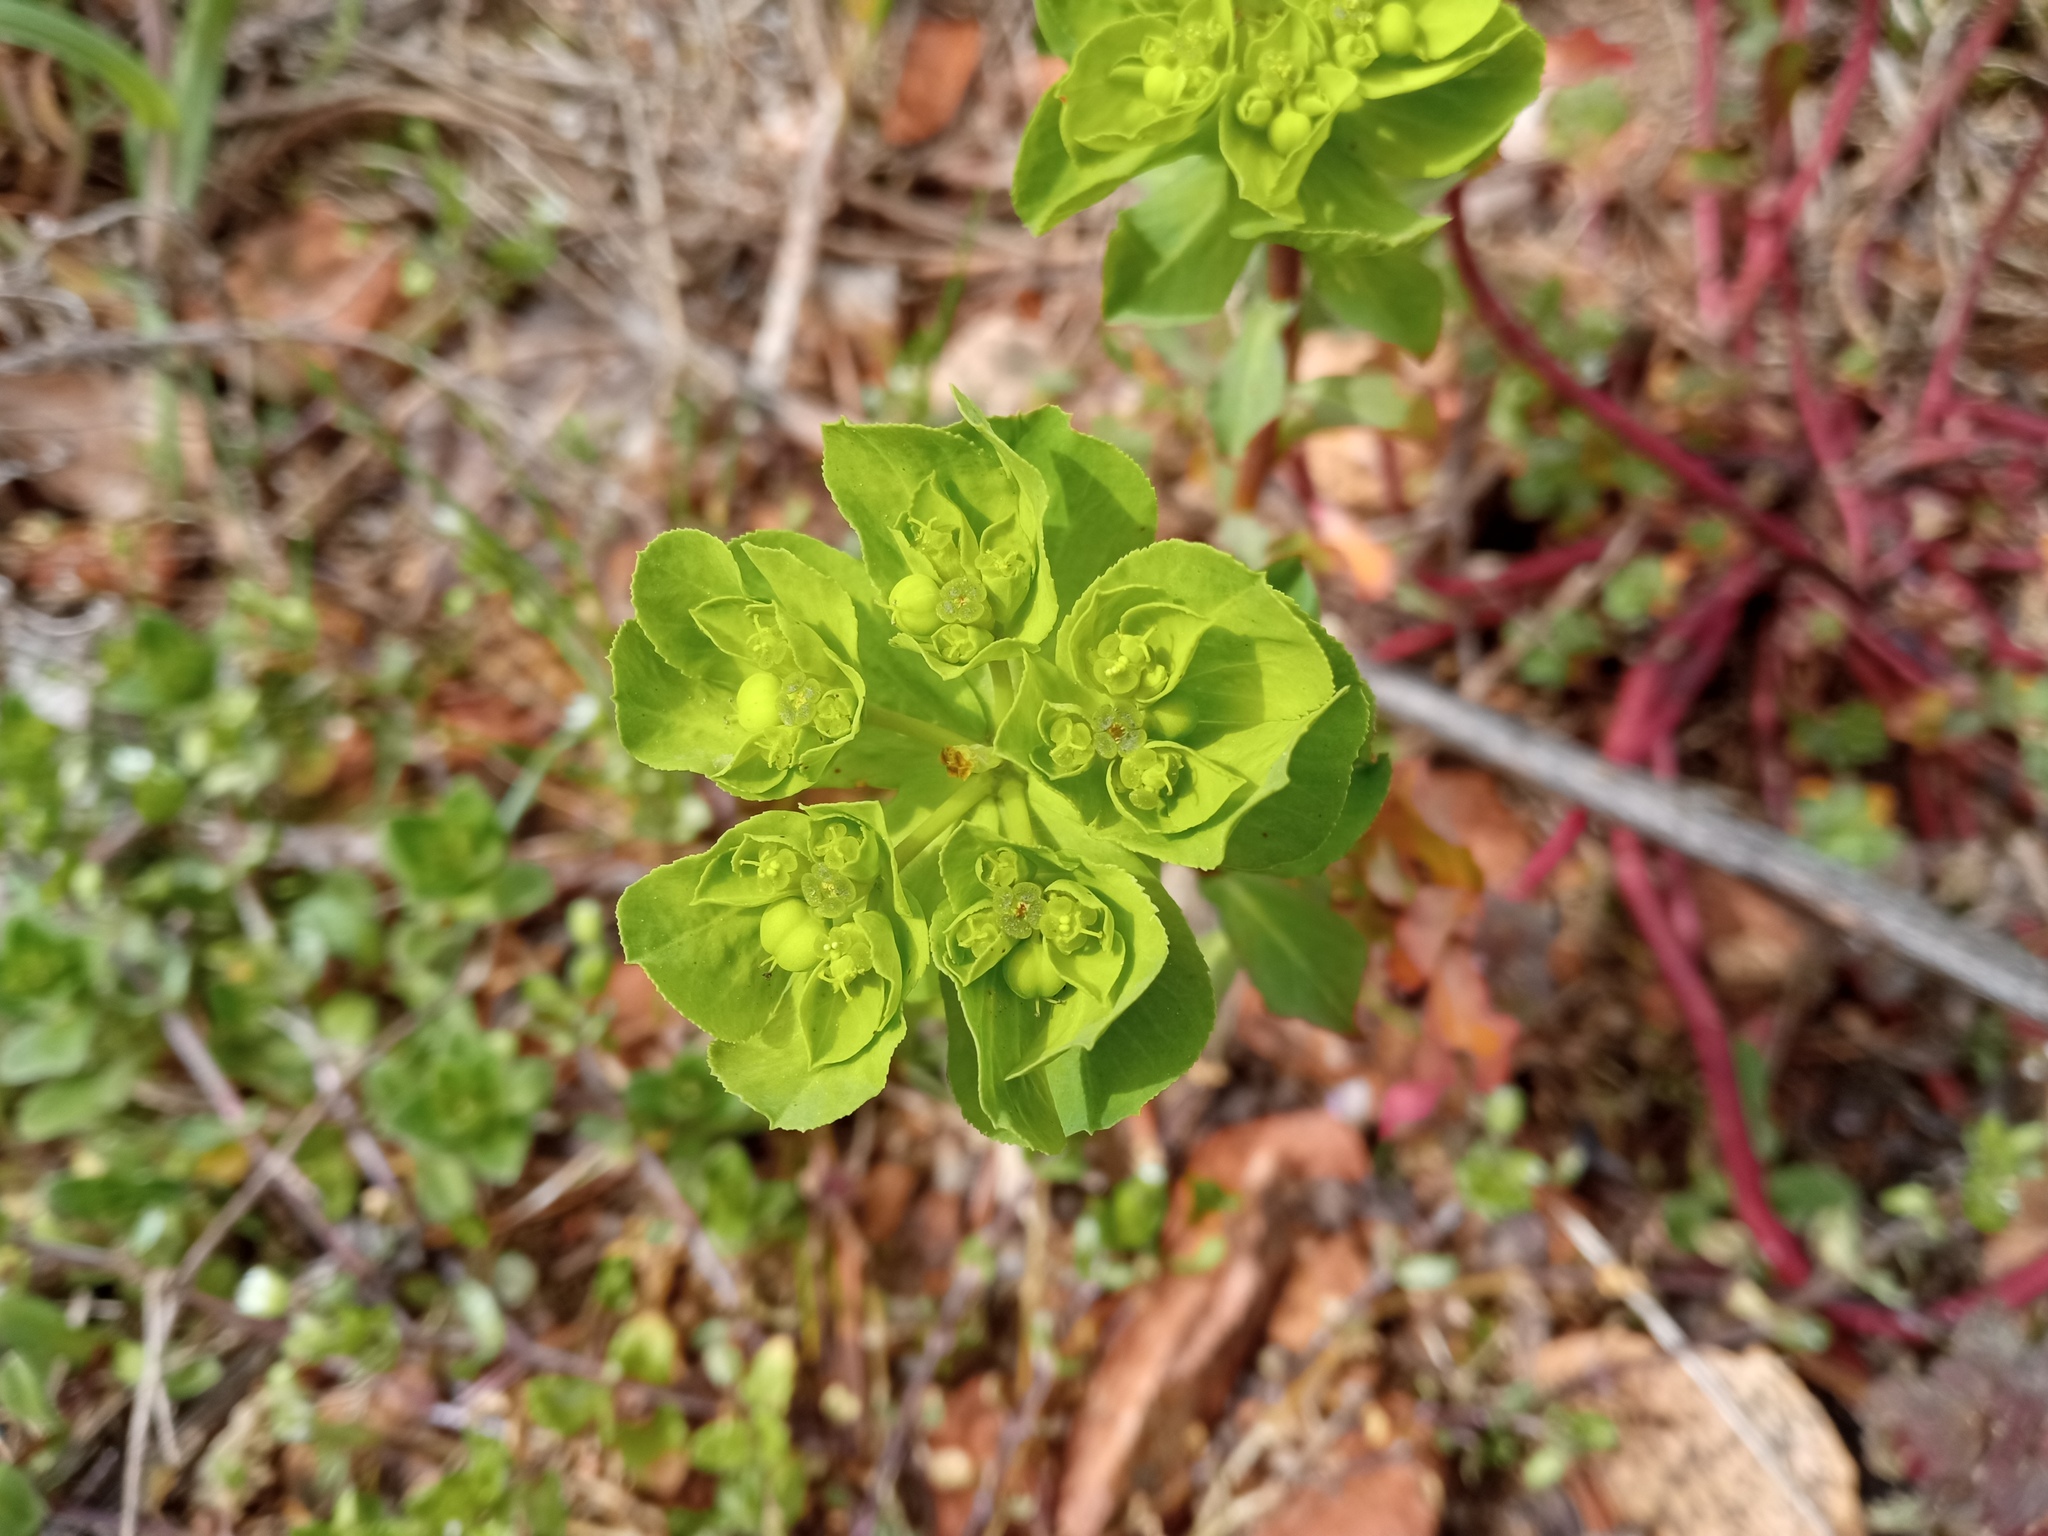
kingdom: Plantae
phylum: Tracheophyta
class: Magnoliopsida
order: Malpighiales
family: Euphorbiaceae
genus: Euphorbia
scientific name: Euphorbia helioscopia
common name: Sun spurge
